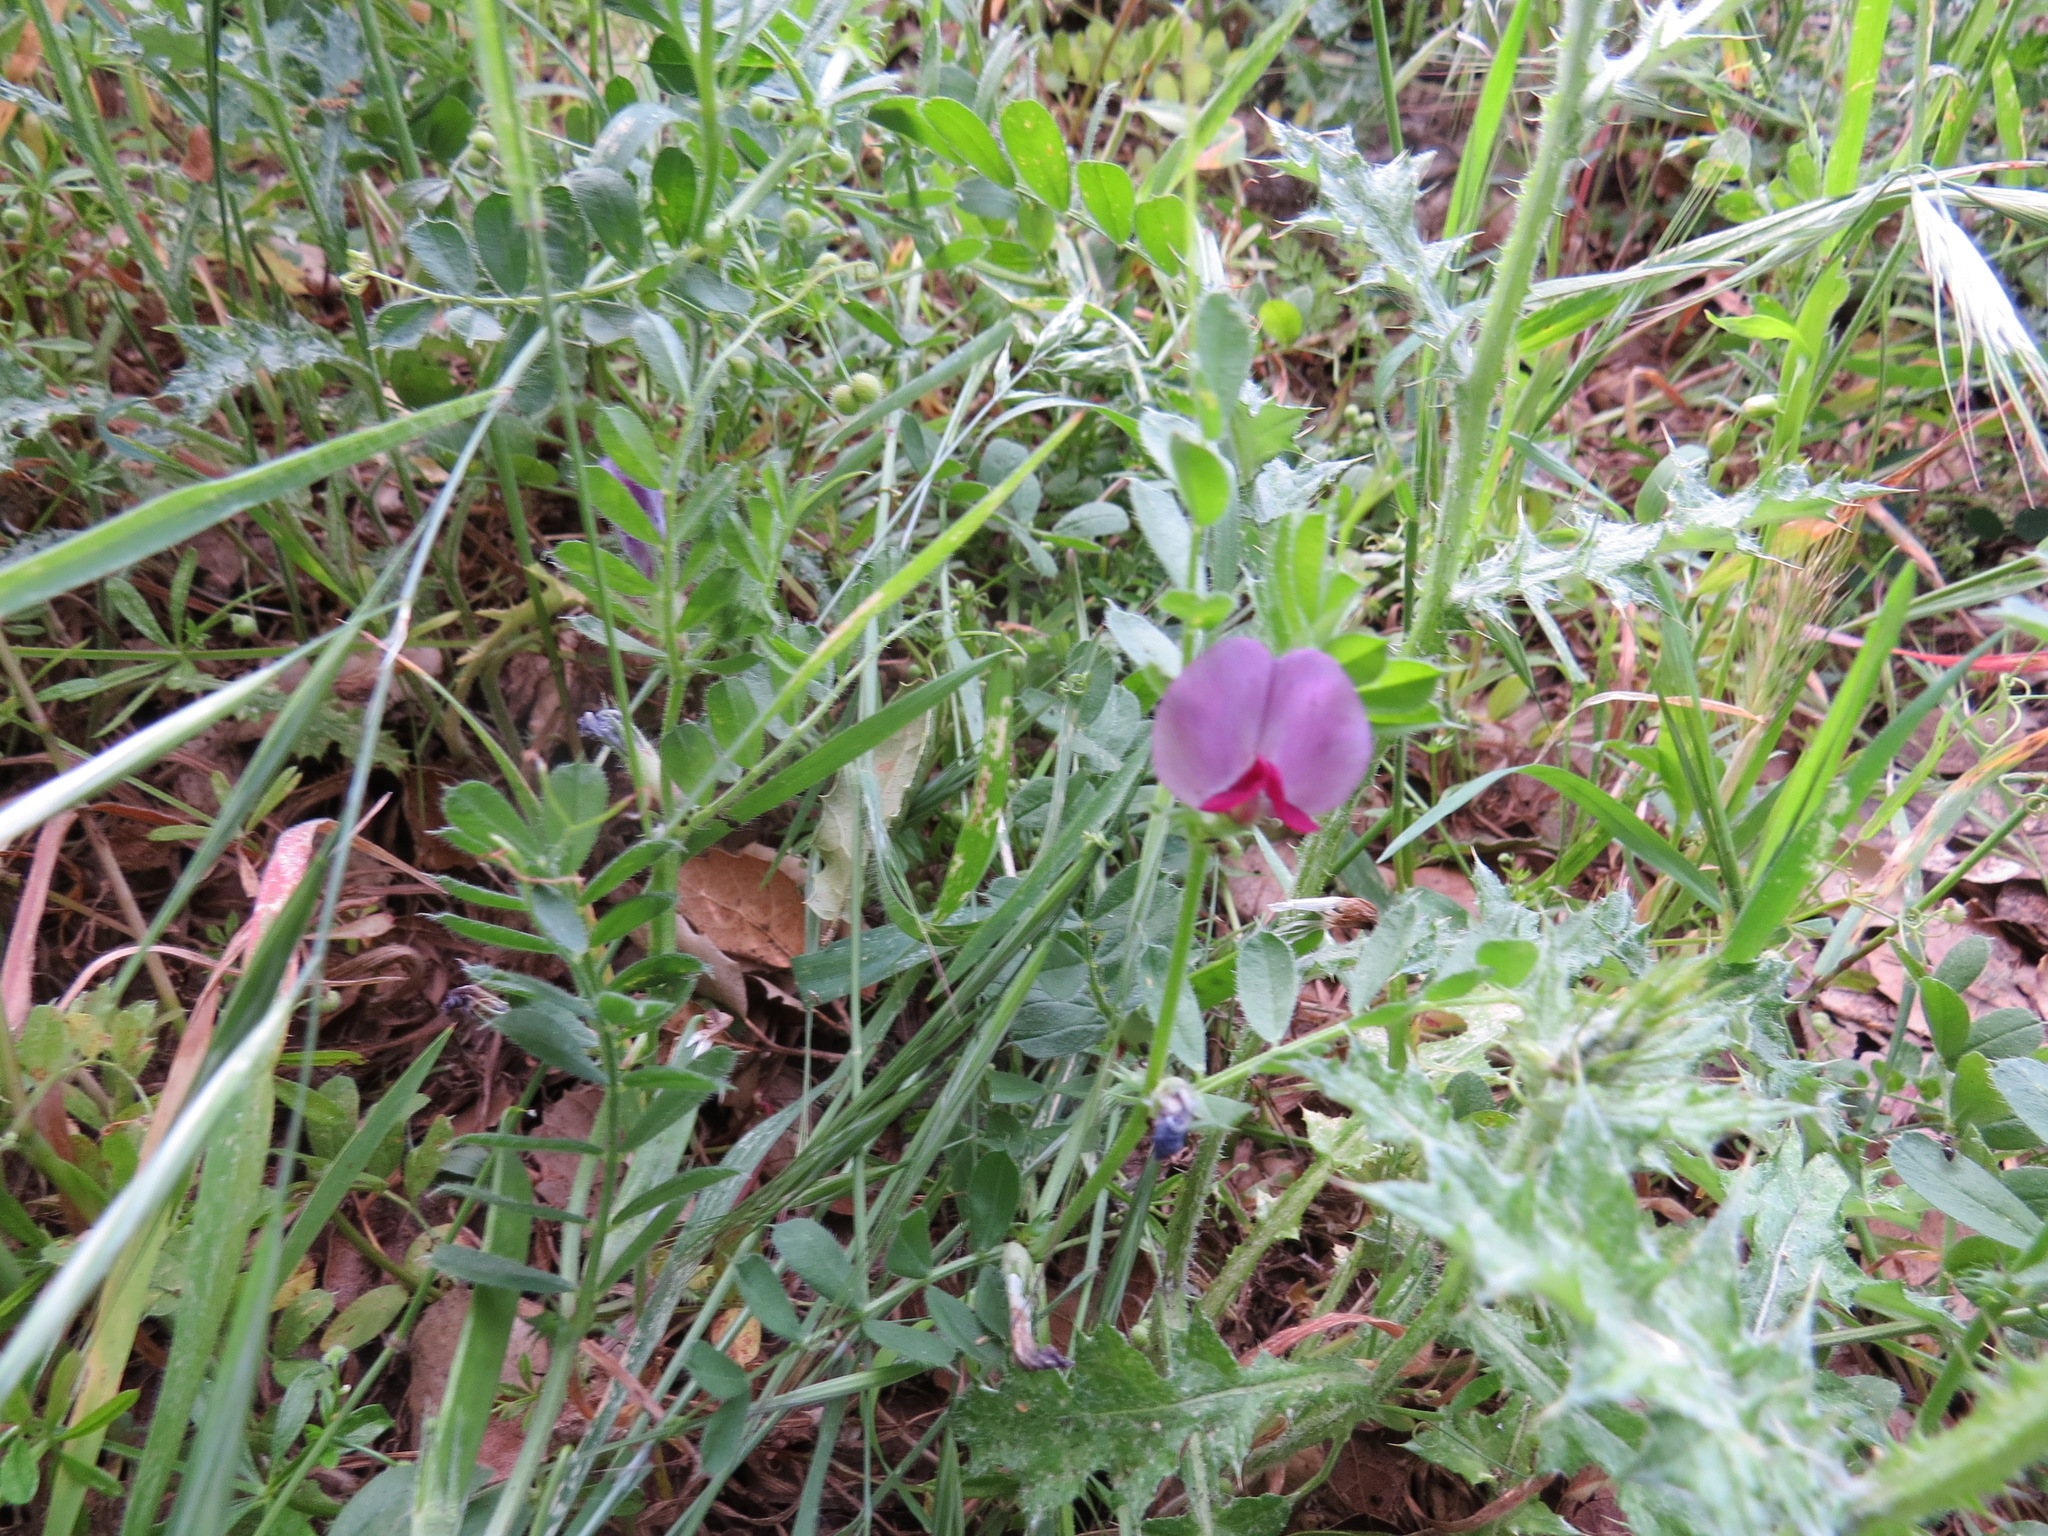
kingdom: Plantae
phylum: Tracheophyta
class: Magnoliopsida
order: Fabales
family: Fabaceae
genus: Vicia
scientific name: Vicia sativa
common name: Garden vetch
